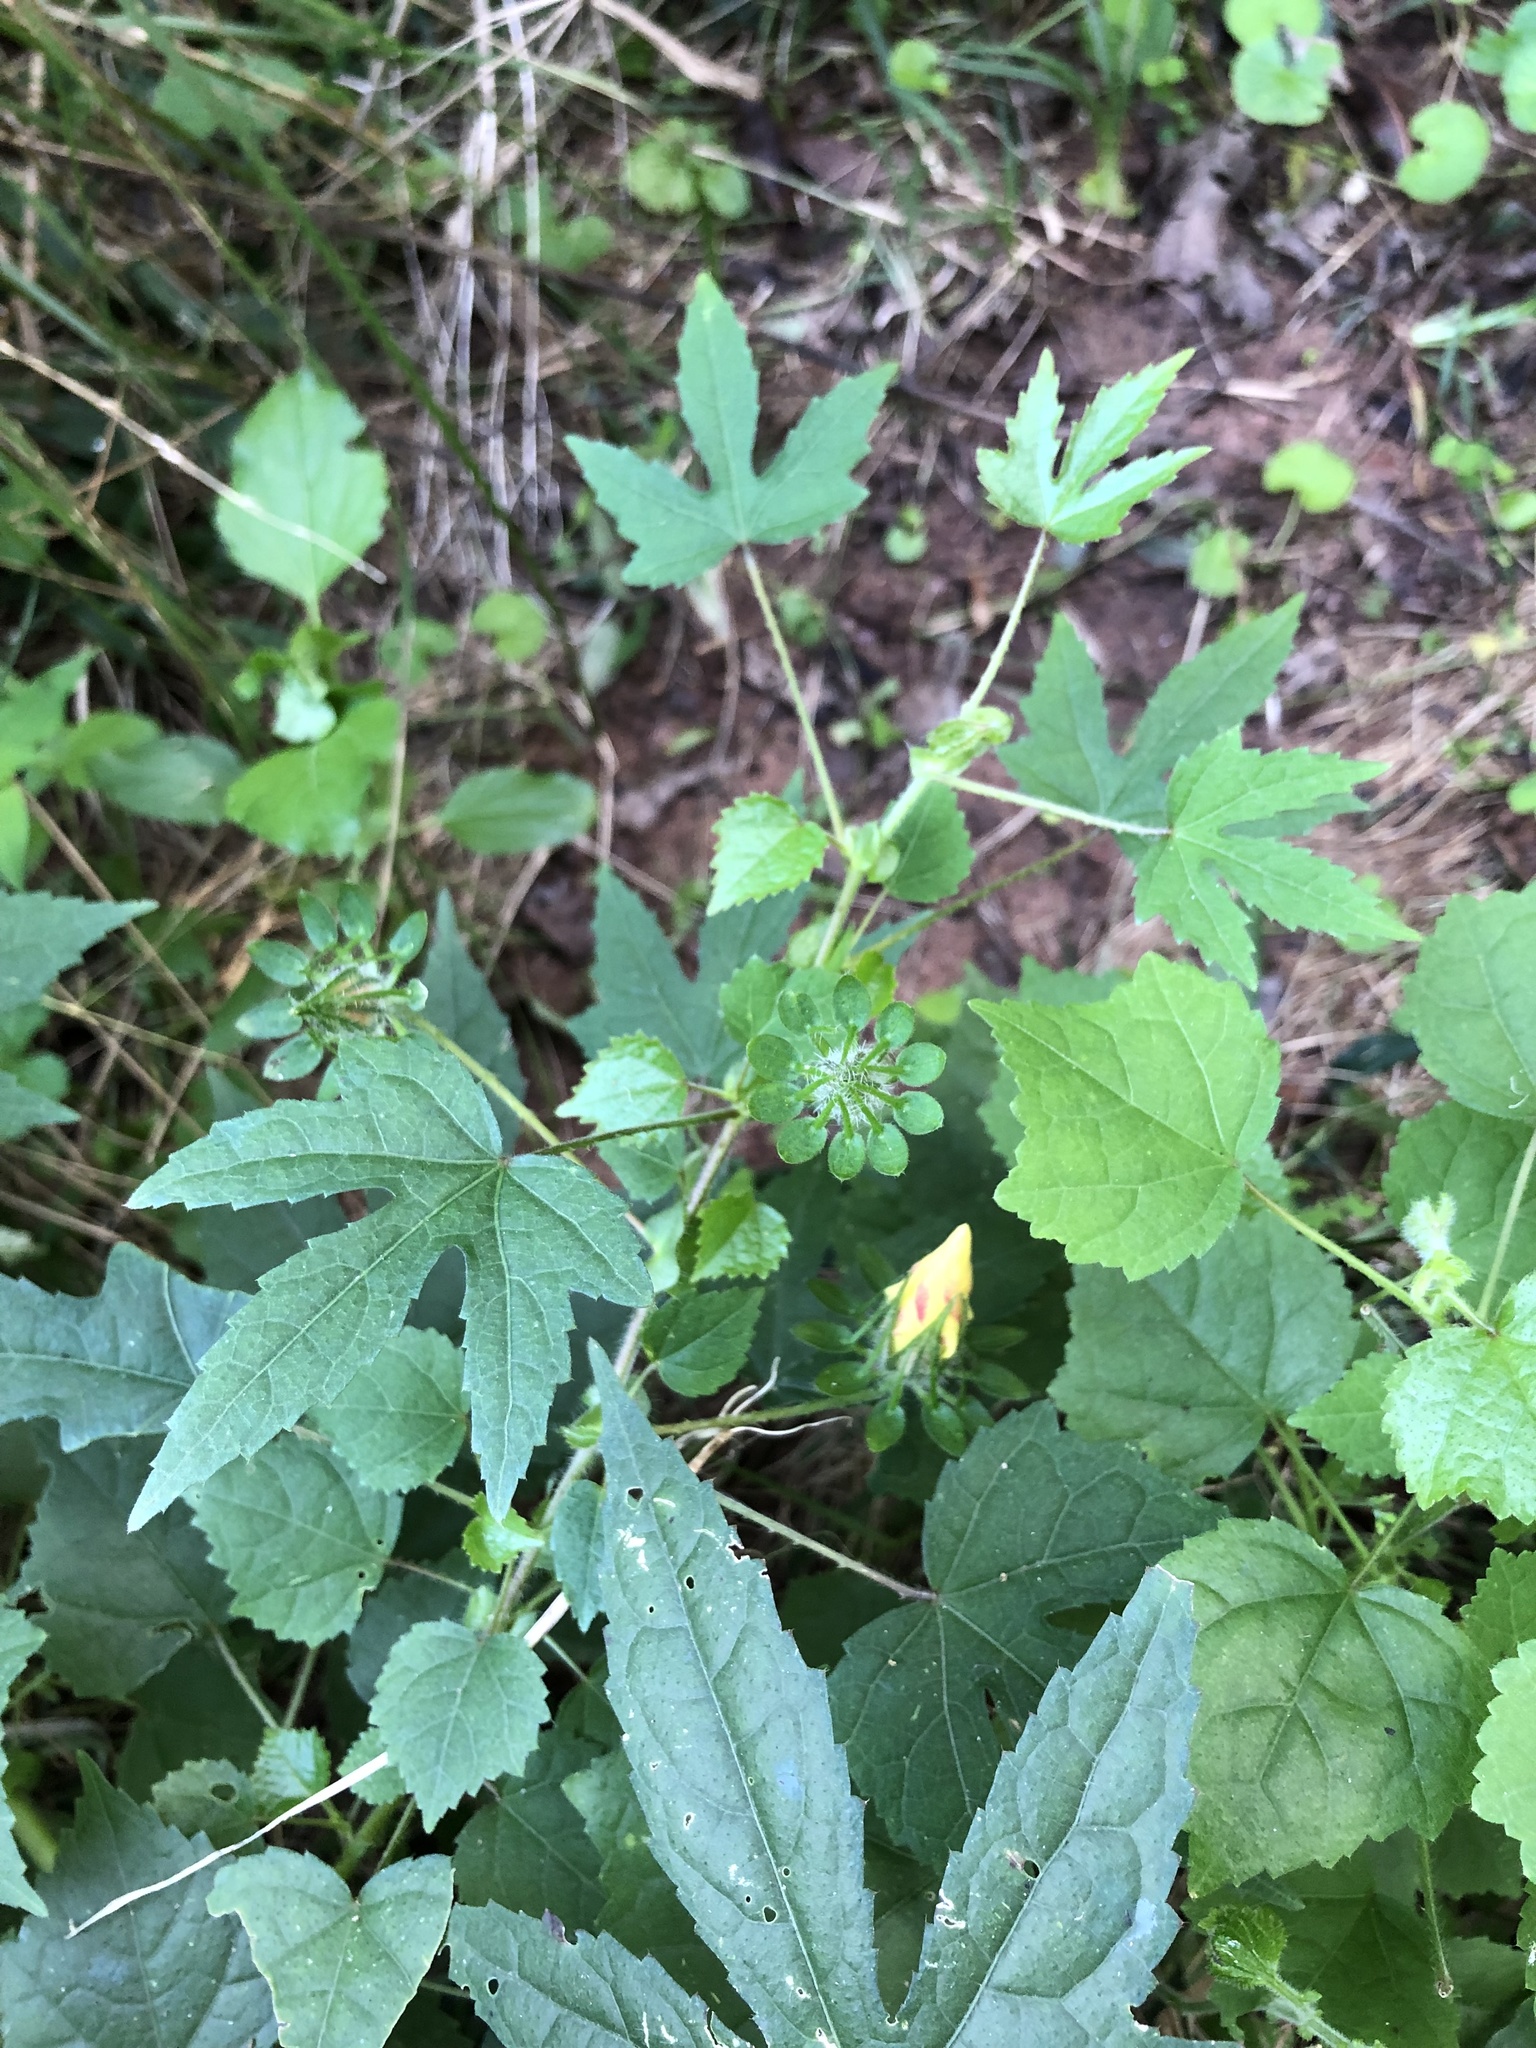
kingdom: Plantae
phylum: Tracheophyta
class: Magnoliopsida
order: Malvales
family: Malvaceae
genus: Hibiscus
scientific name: Hibiscus surattensis
